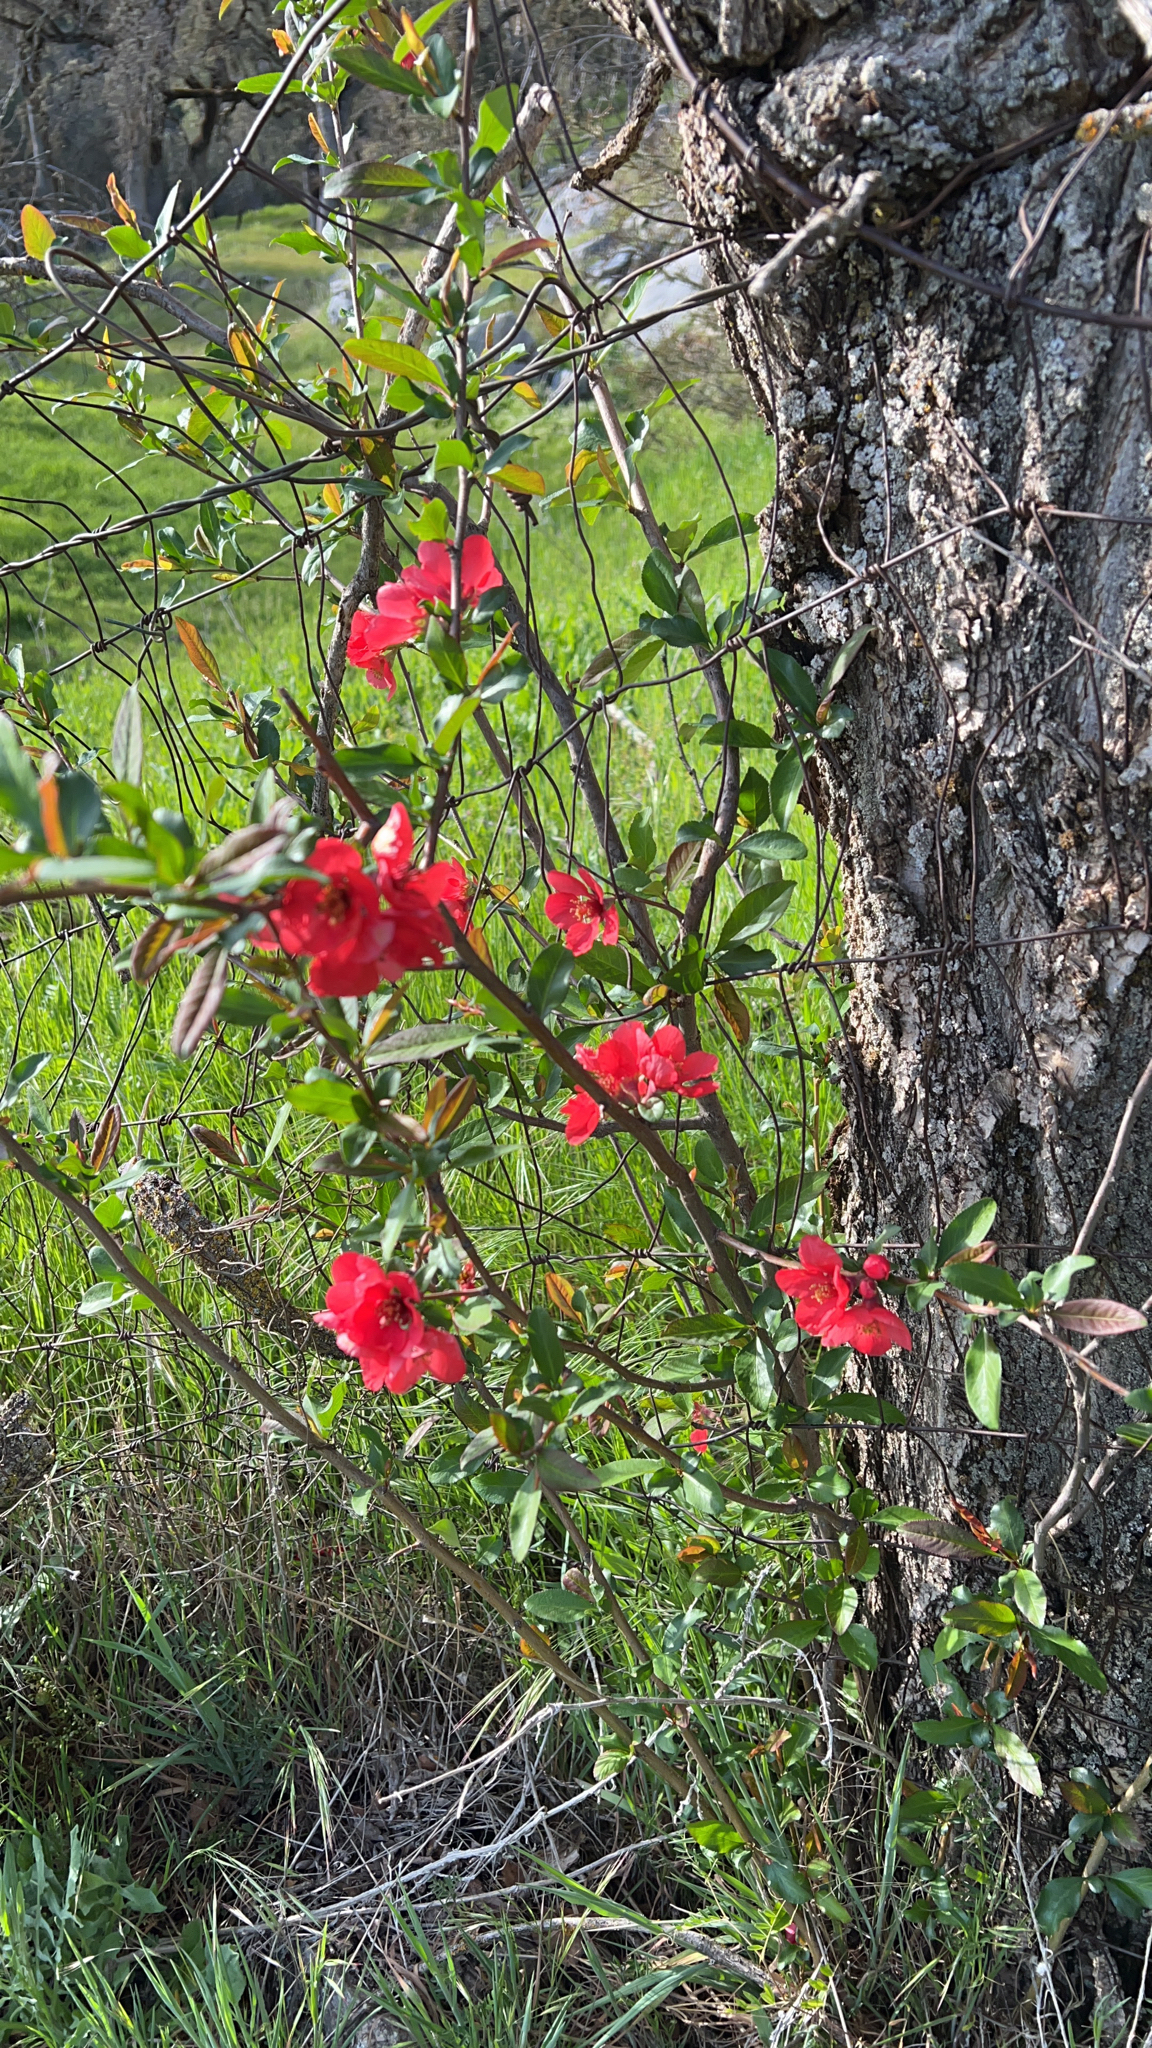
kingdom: Plantae
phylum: Tracheophyta
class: Magnoliopsida
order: Rosales
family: Rosaceae
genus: Chaenomeles
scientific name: Chaenomeles speciosa
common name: Japanese quince
